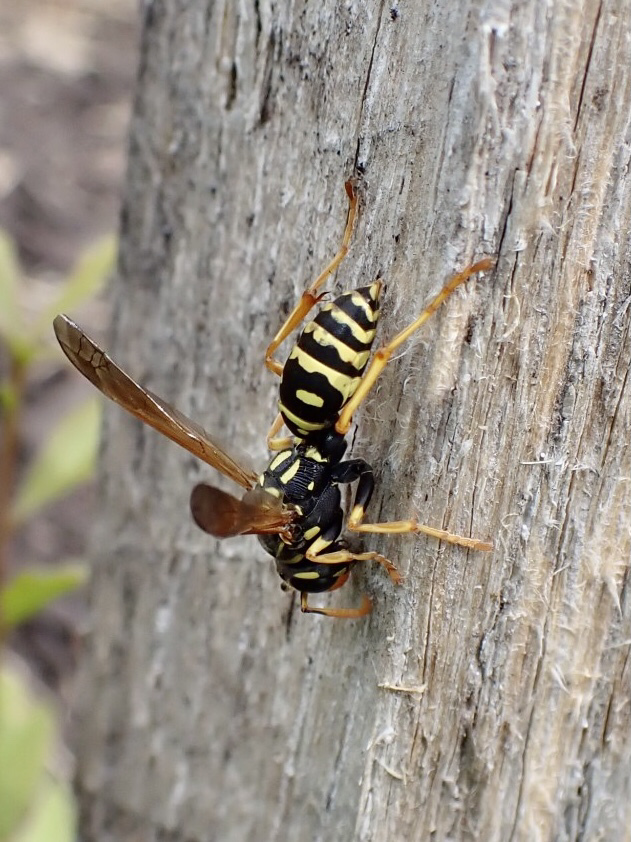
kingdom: Animalia
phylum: Arthropoda
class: Insecta
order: Hymenoptera
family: Eumenidae
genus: Polistes
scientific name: Polistes dominula
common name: Paper wasp
